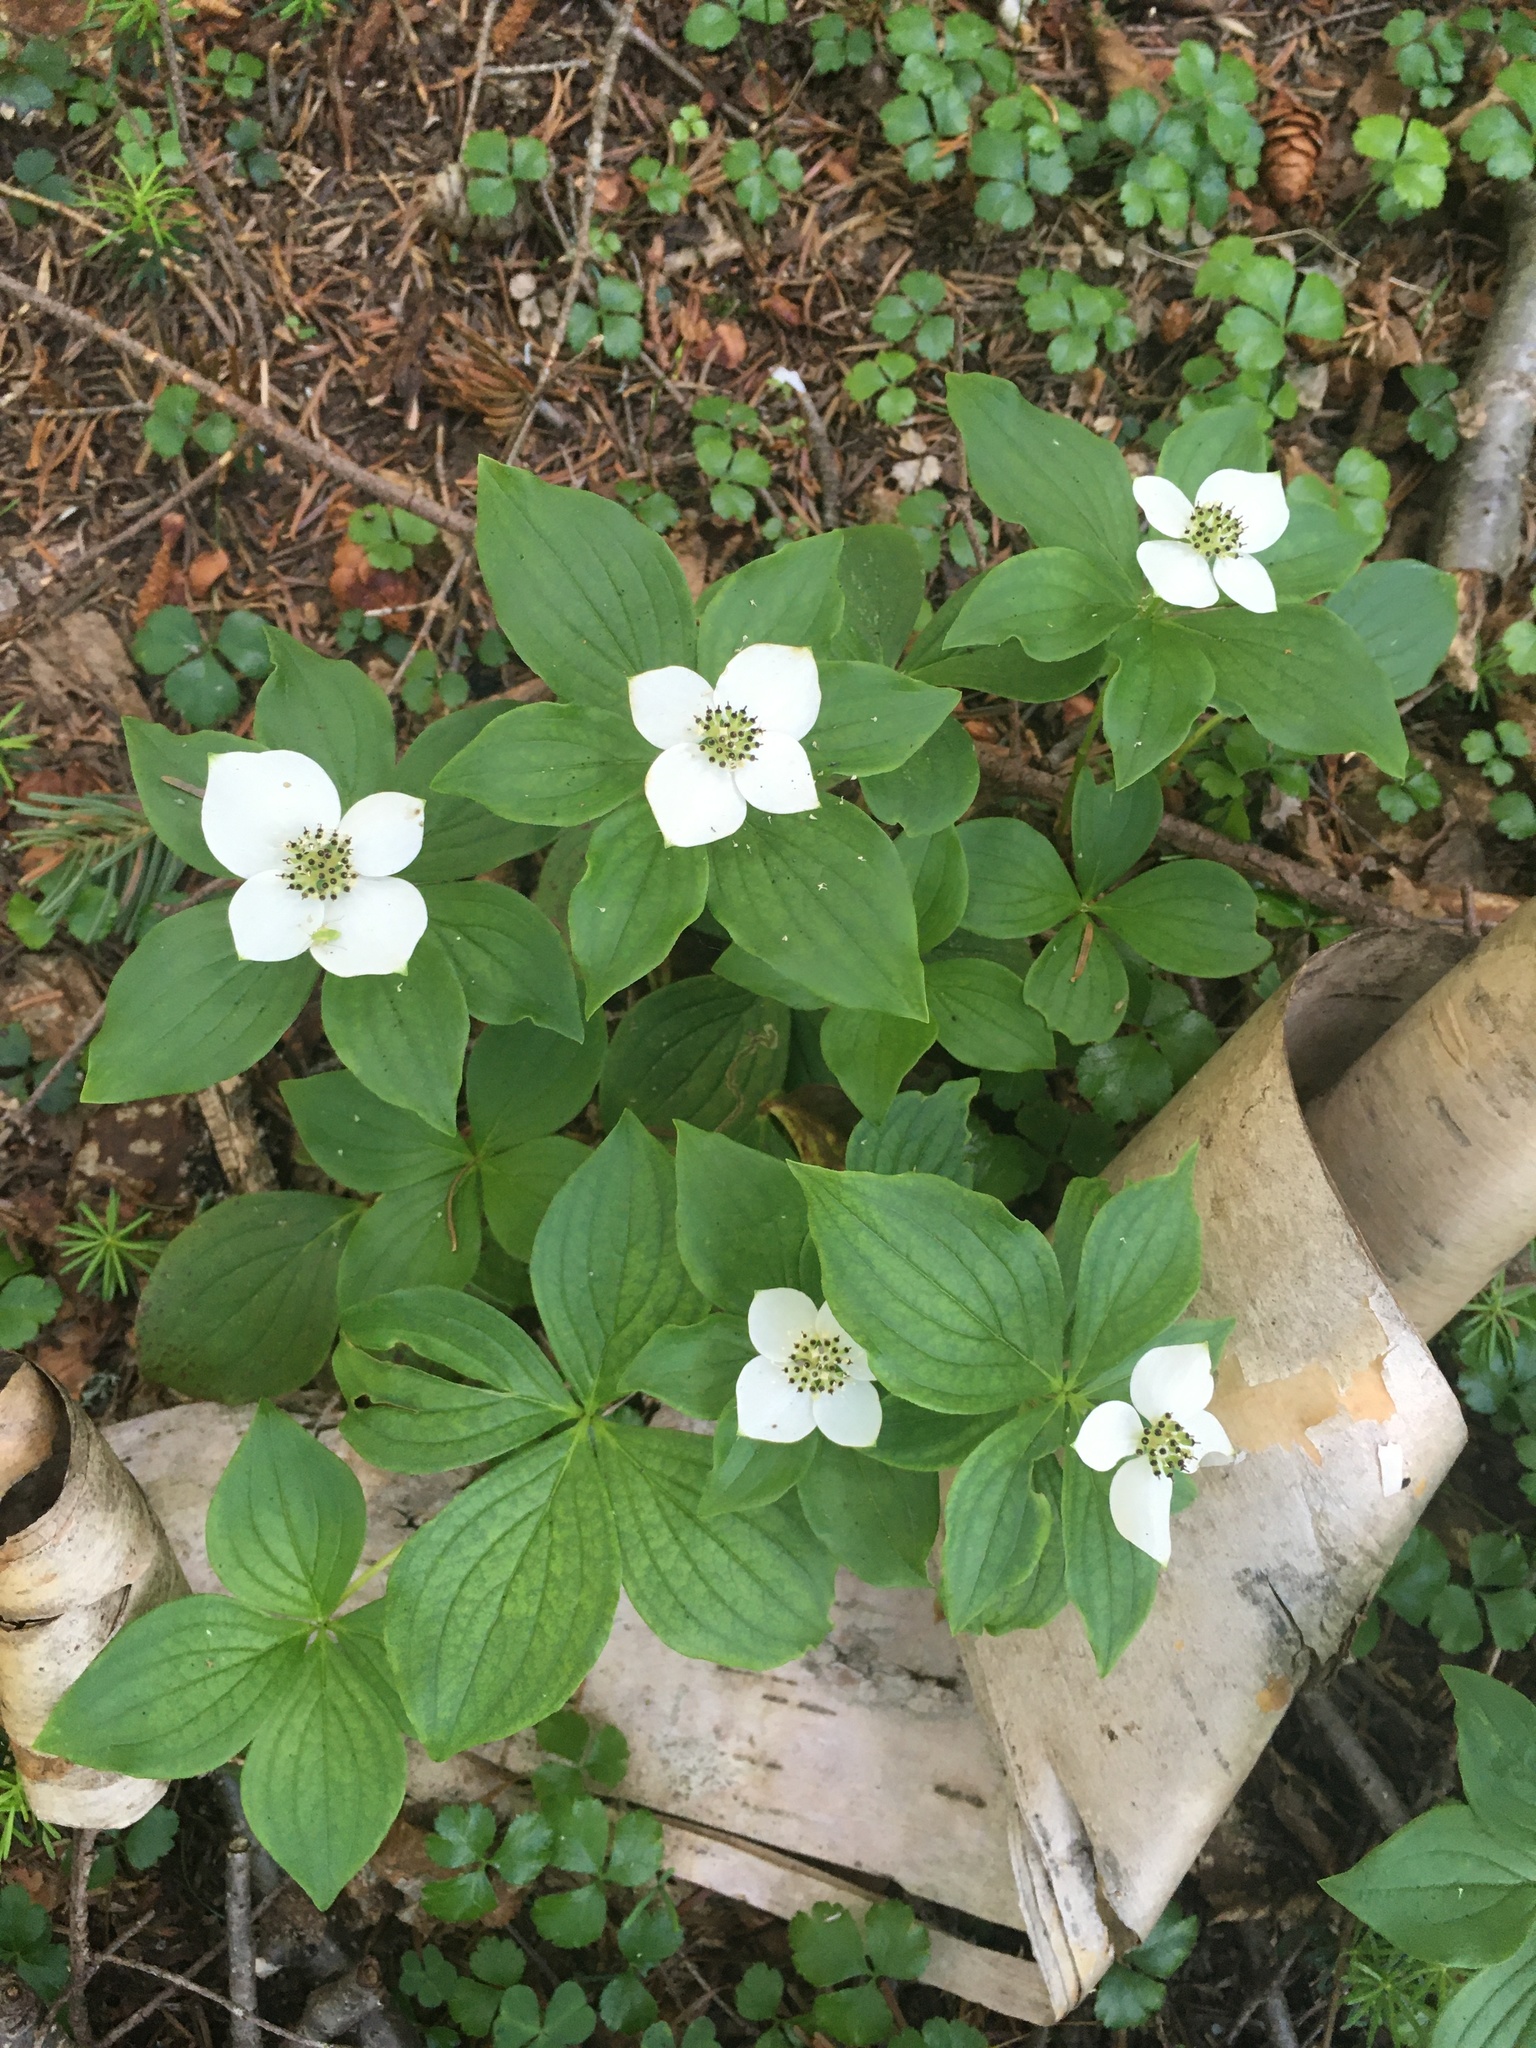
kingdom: Plantae
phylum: Tracheophyta
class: Magnoliopsida
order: Cornales
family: Cornaceae
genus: Cornus
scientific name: Cornus canadensis
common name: Creeping dogwood
